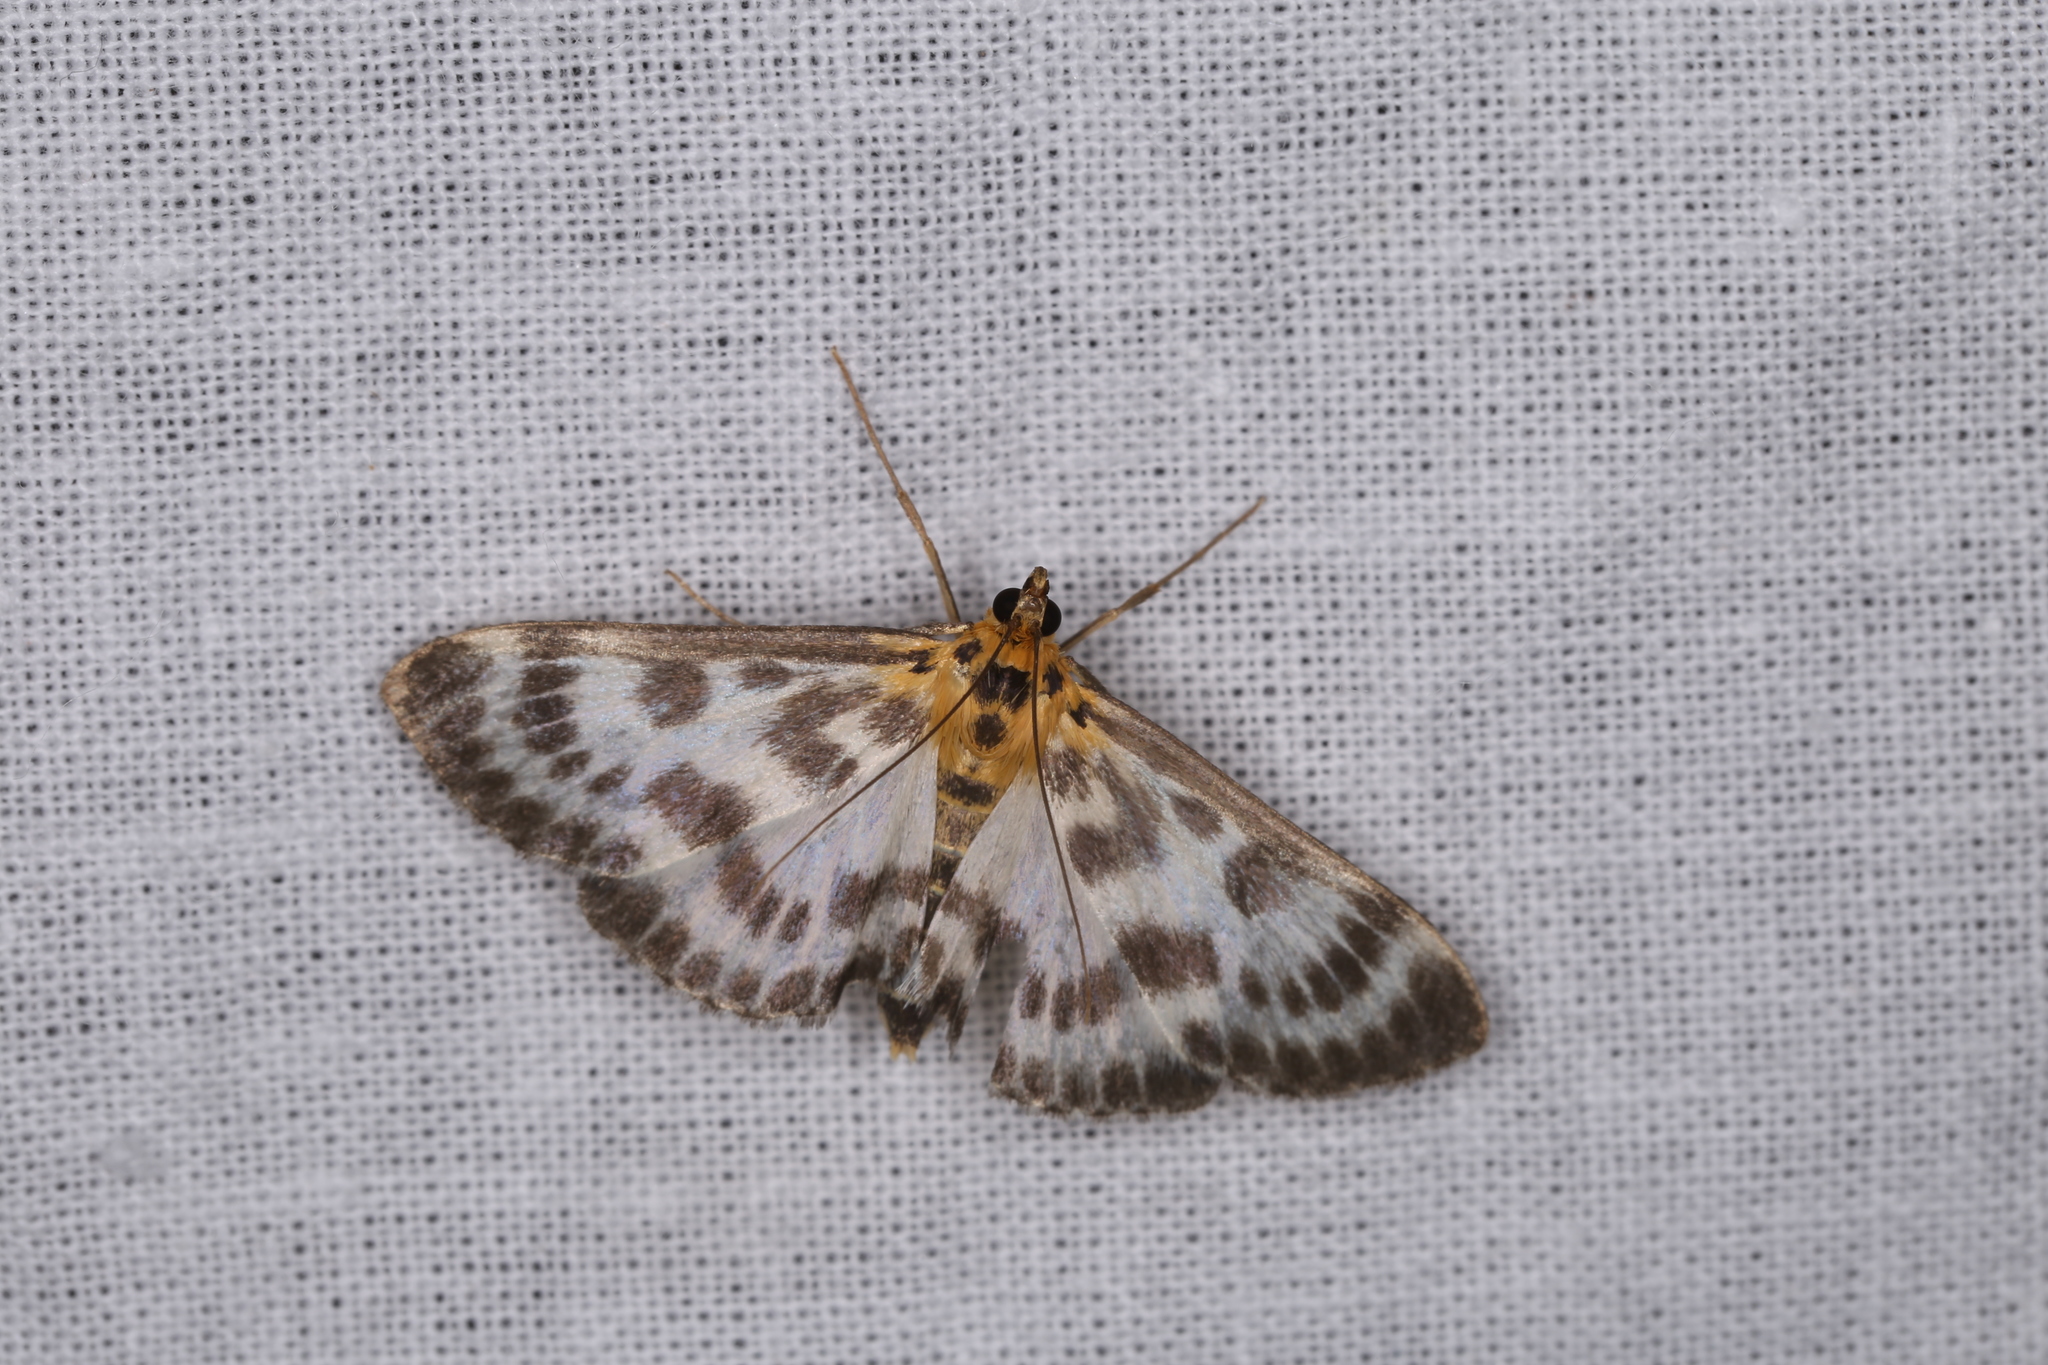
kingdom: Animalia
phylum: Arthropoda
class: Insecta
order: Lepidoptera
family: Crambidae
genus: Anania
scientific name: Anania hortulata
